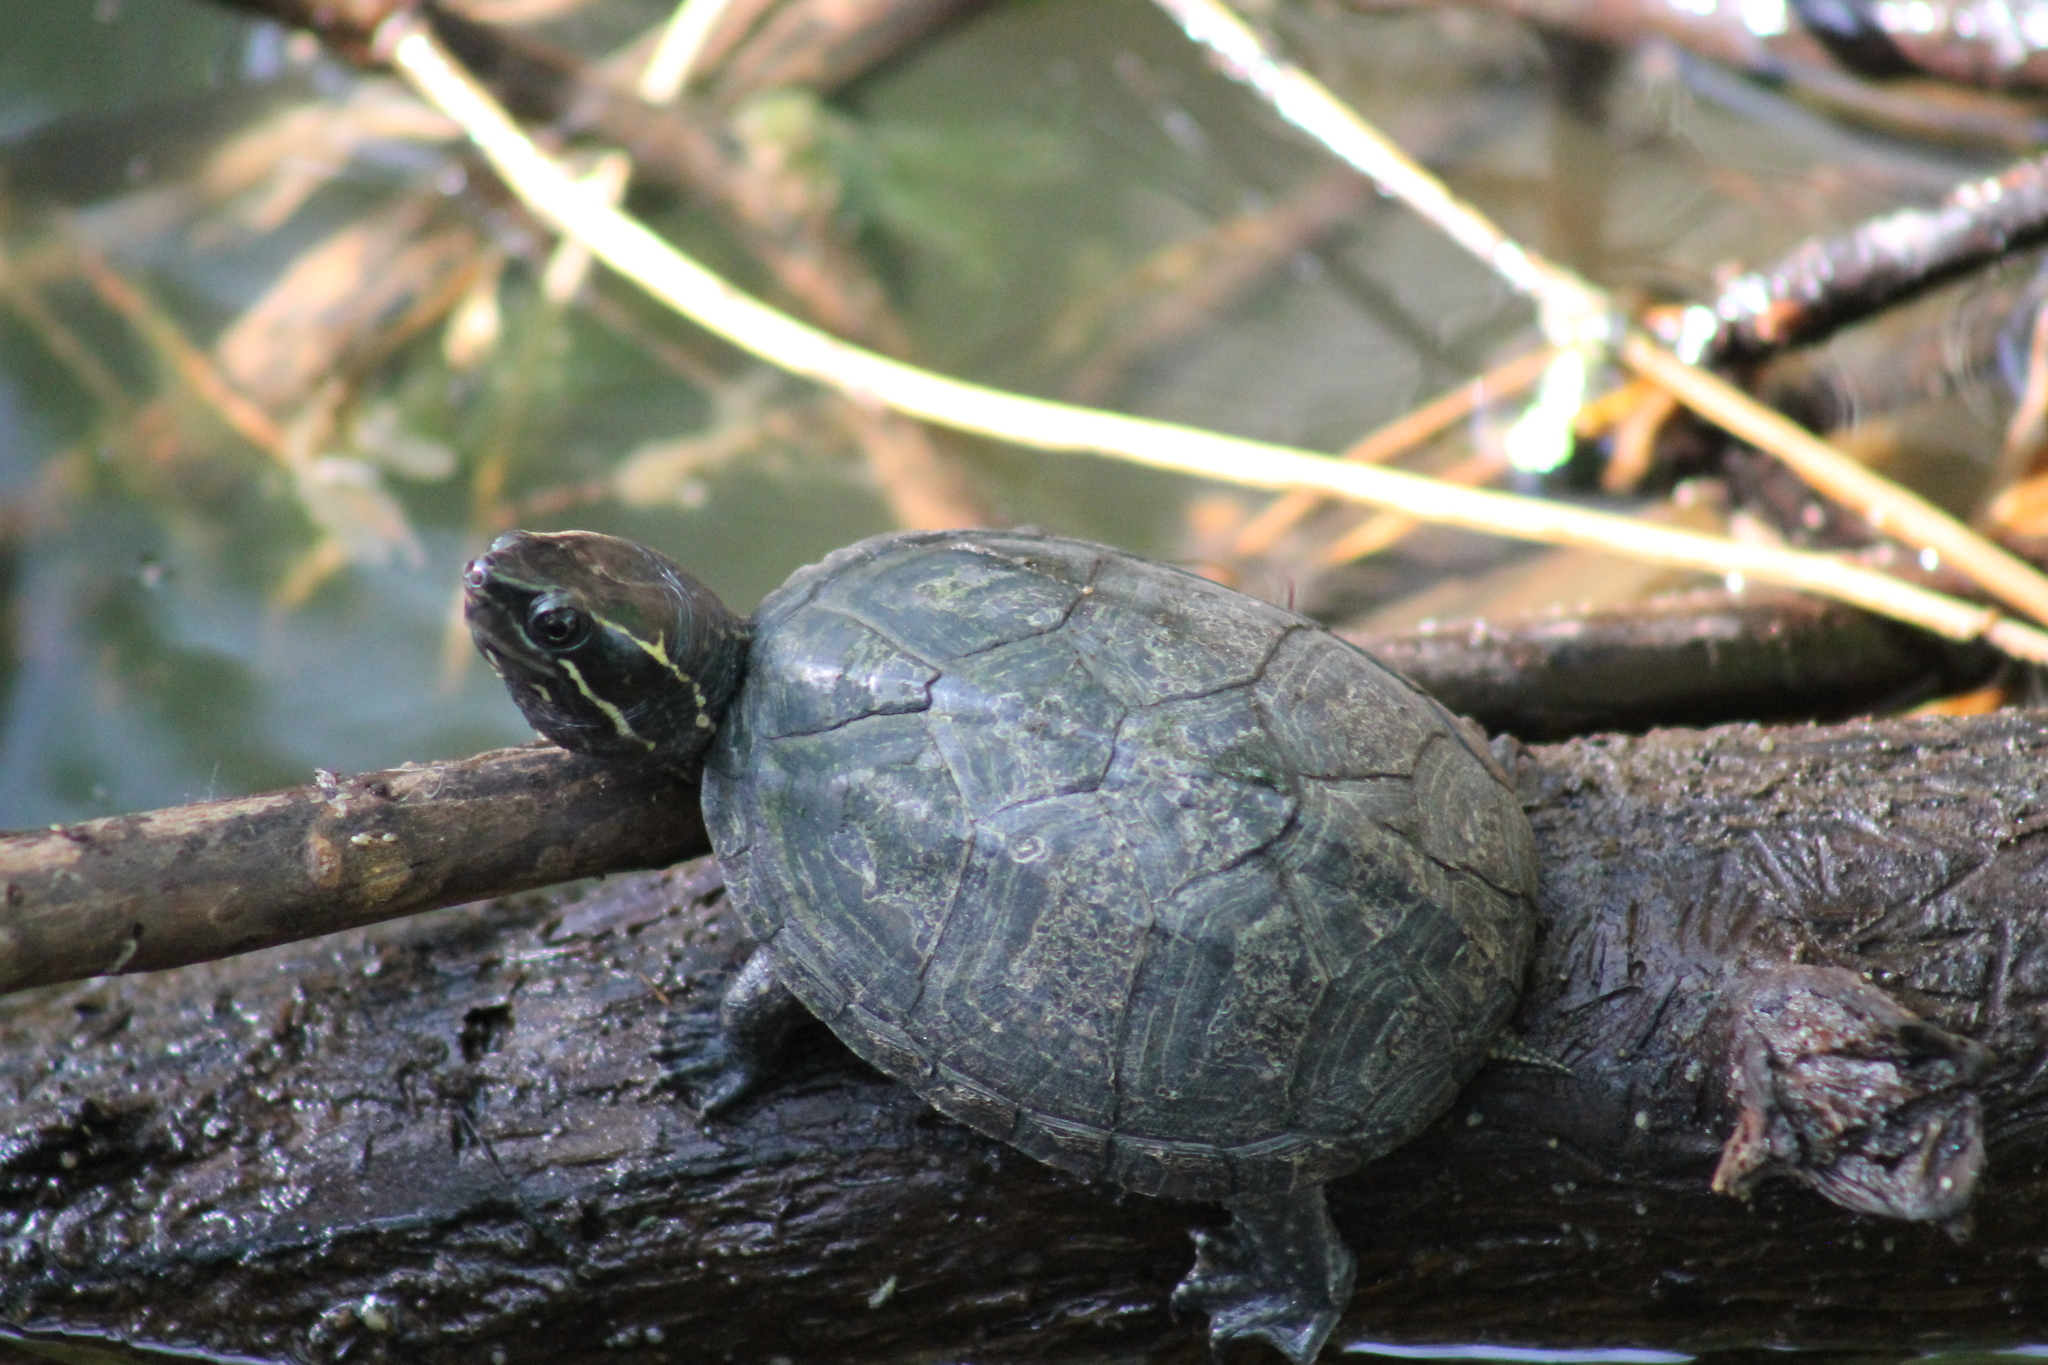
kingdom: Animalia
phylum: Chordata
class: Testudines
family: Kinosternidae
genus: Sternotherus
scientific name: Sternotherus odoratus
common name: Common musk turtle
